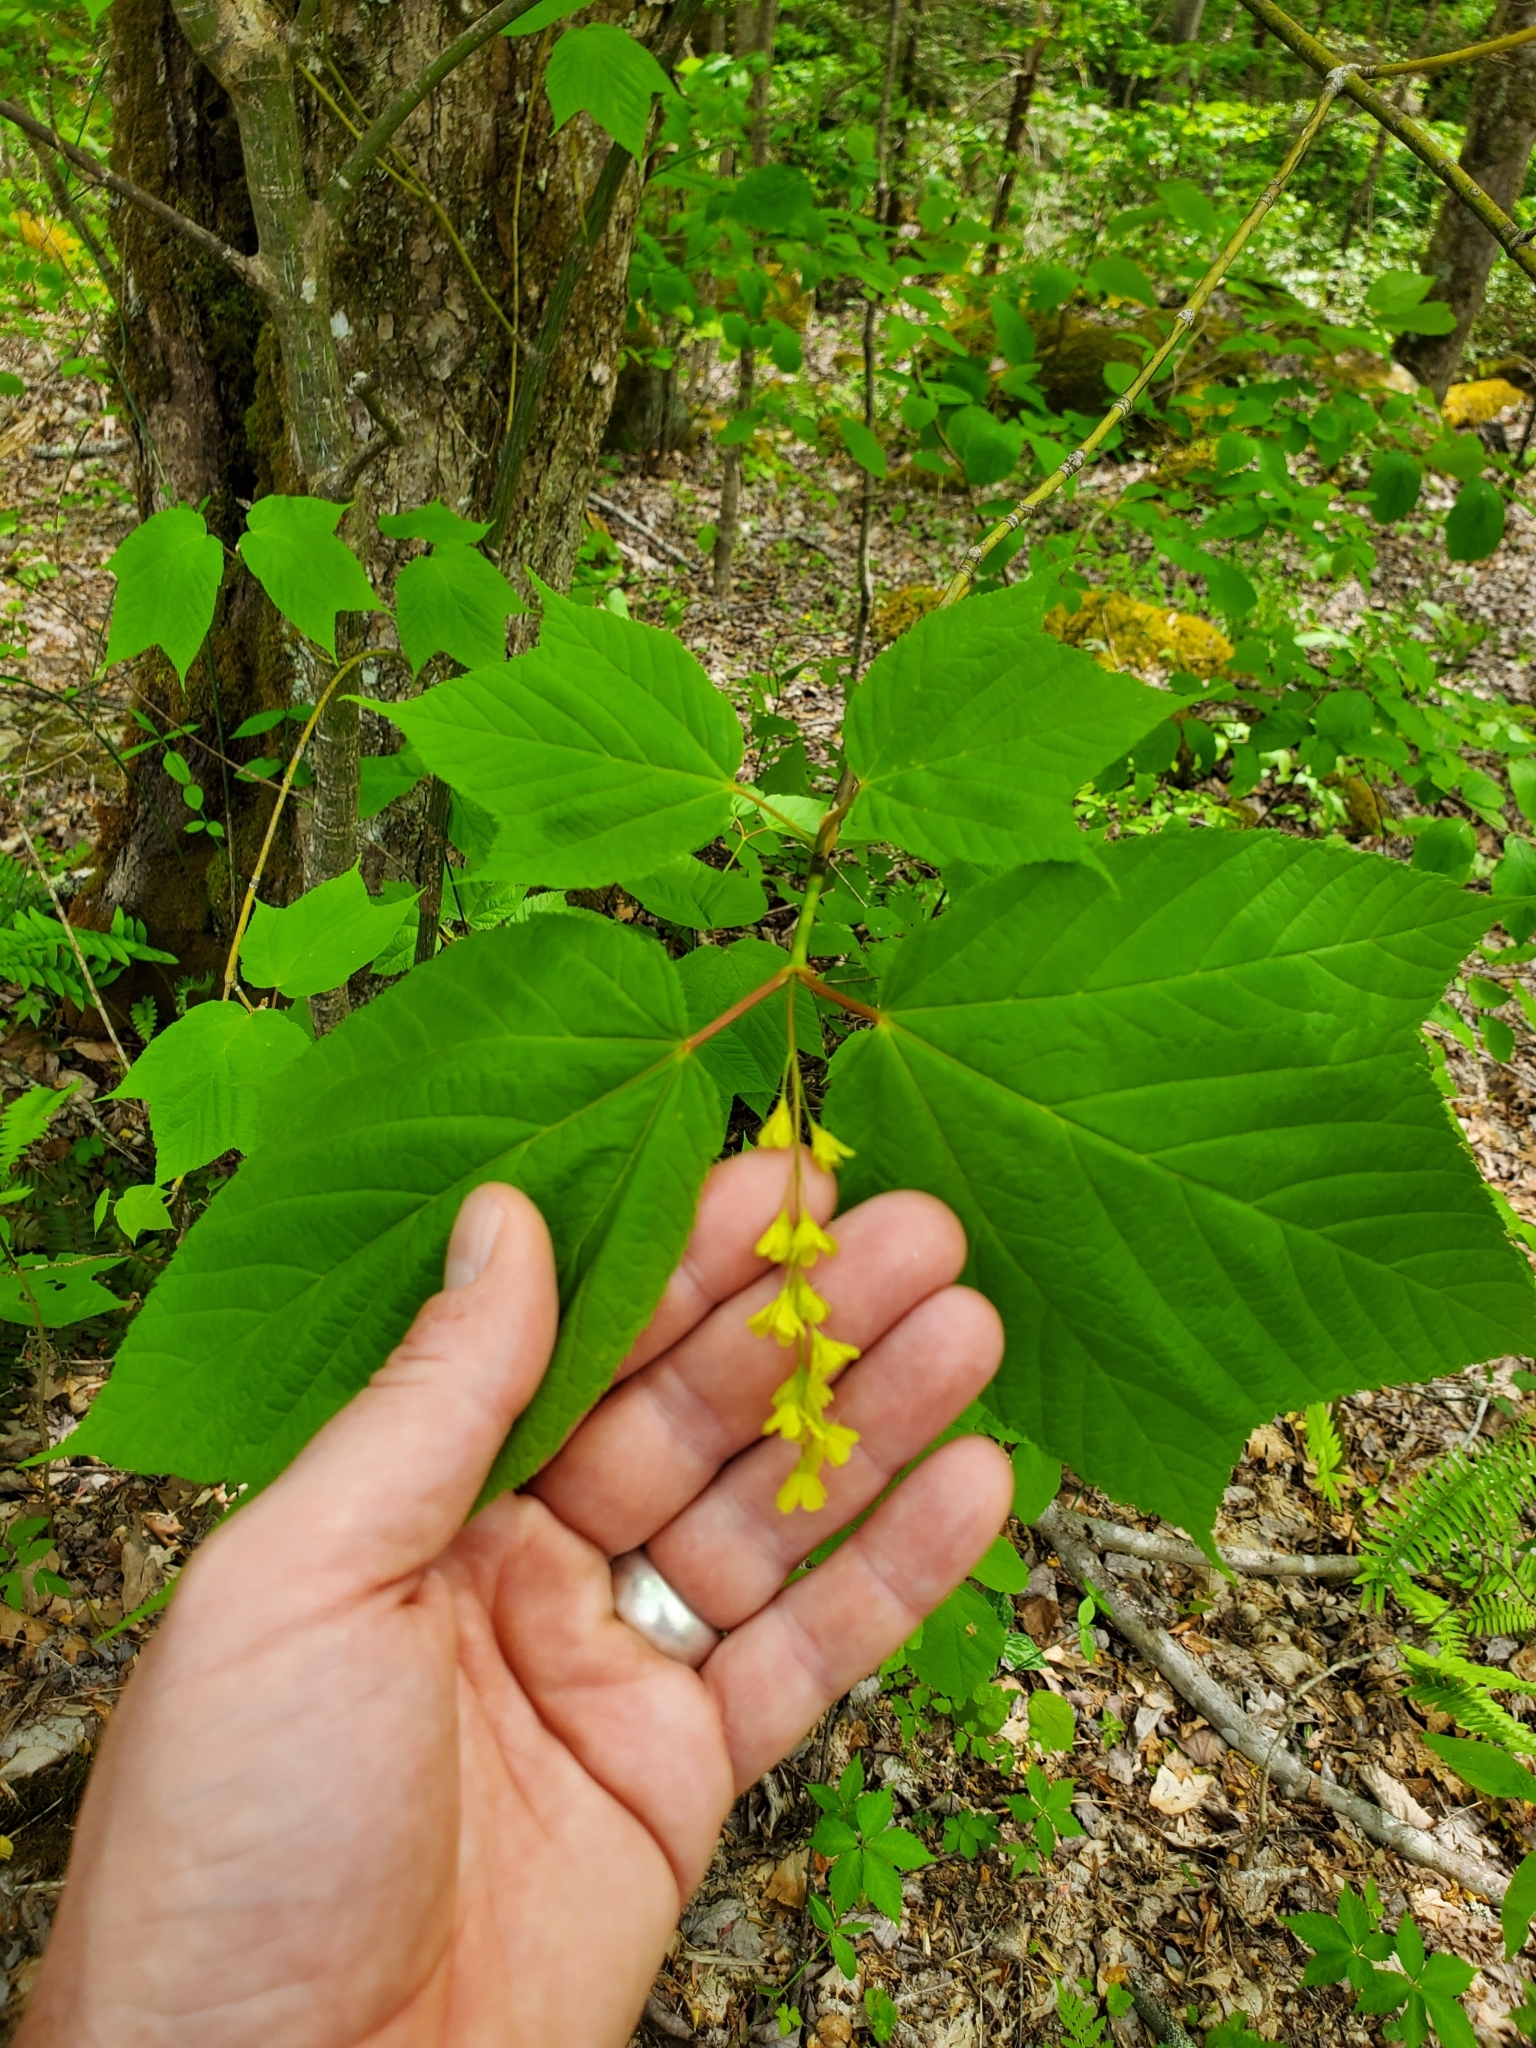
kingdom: Plantae
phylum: Tracheophyta
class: Magnoliopsida
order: Sapindales
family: Sapindaceae
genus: Acer
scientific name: Acer pensylvanicum
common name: Moosewood
